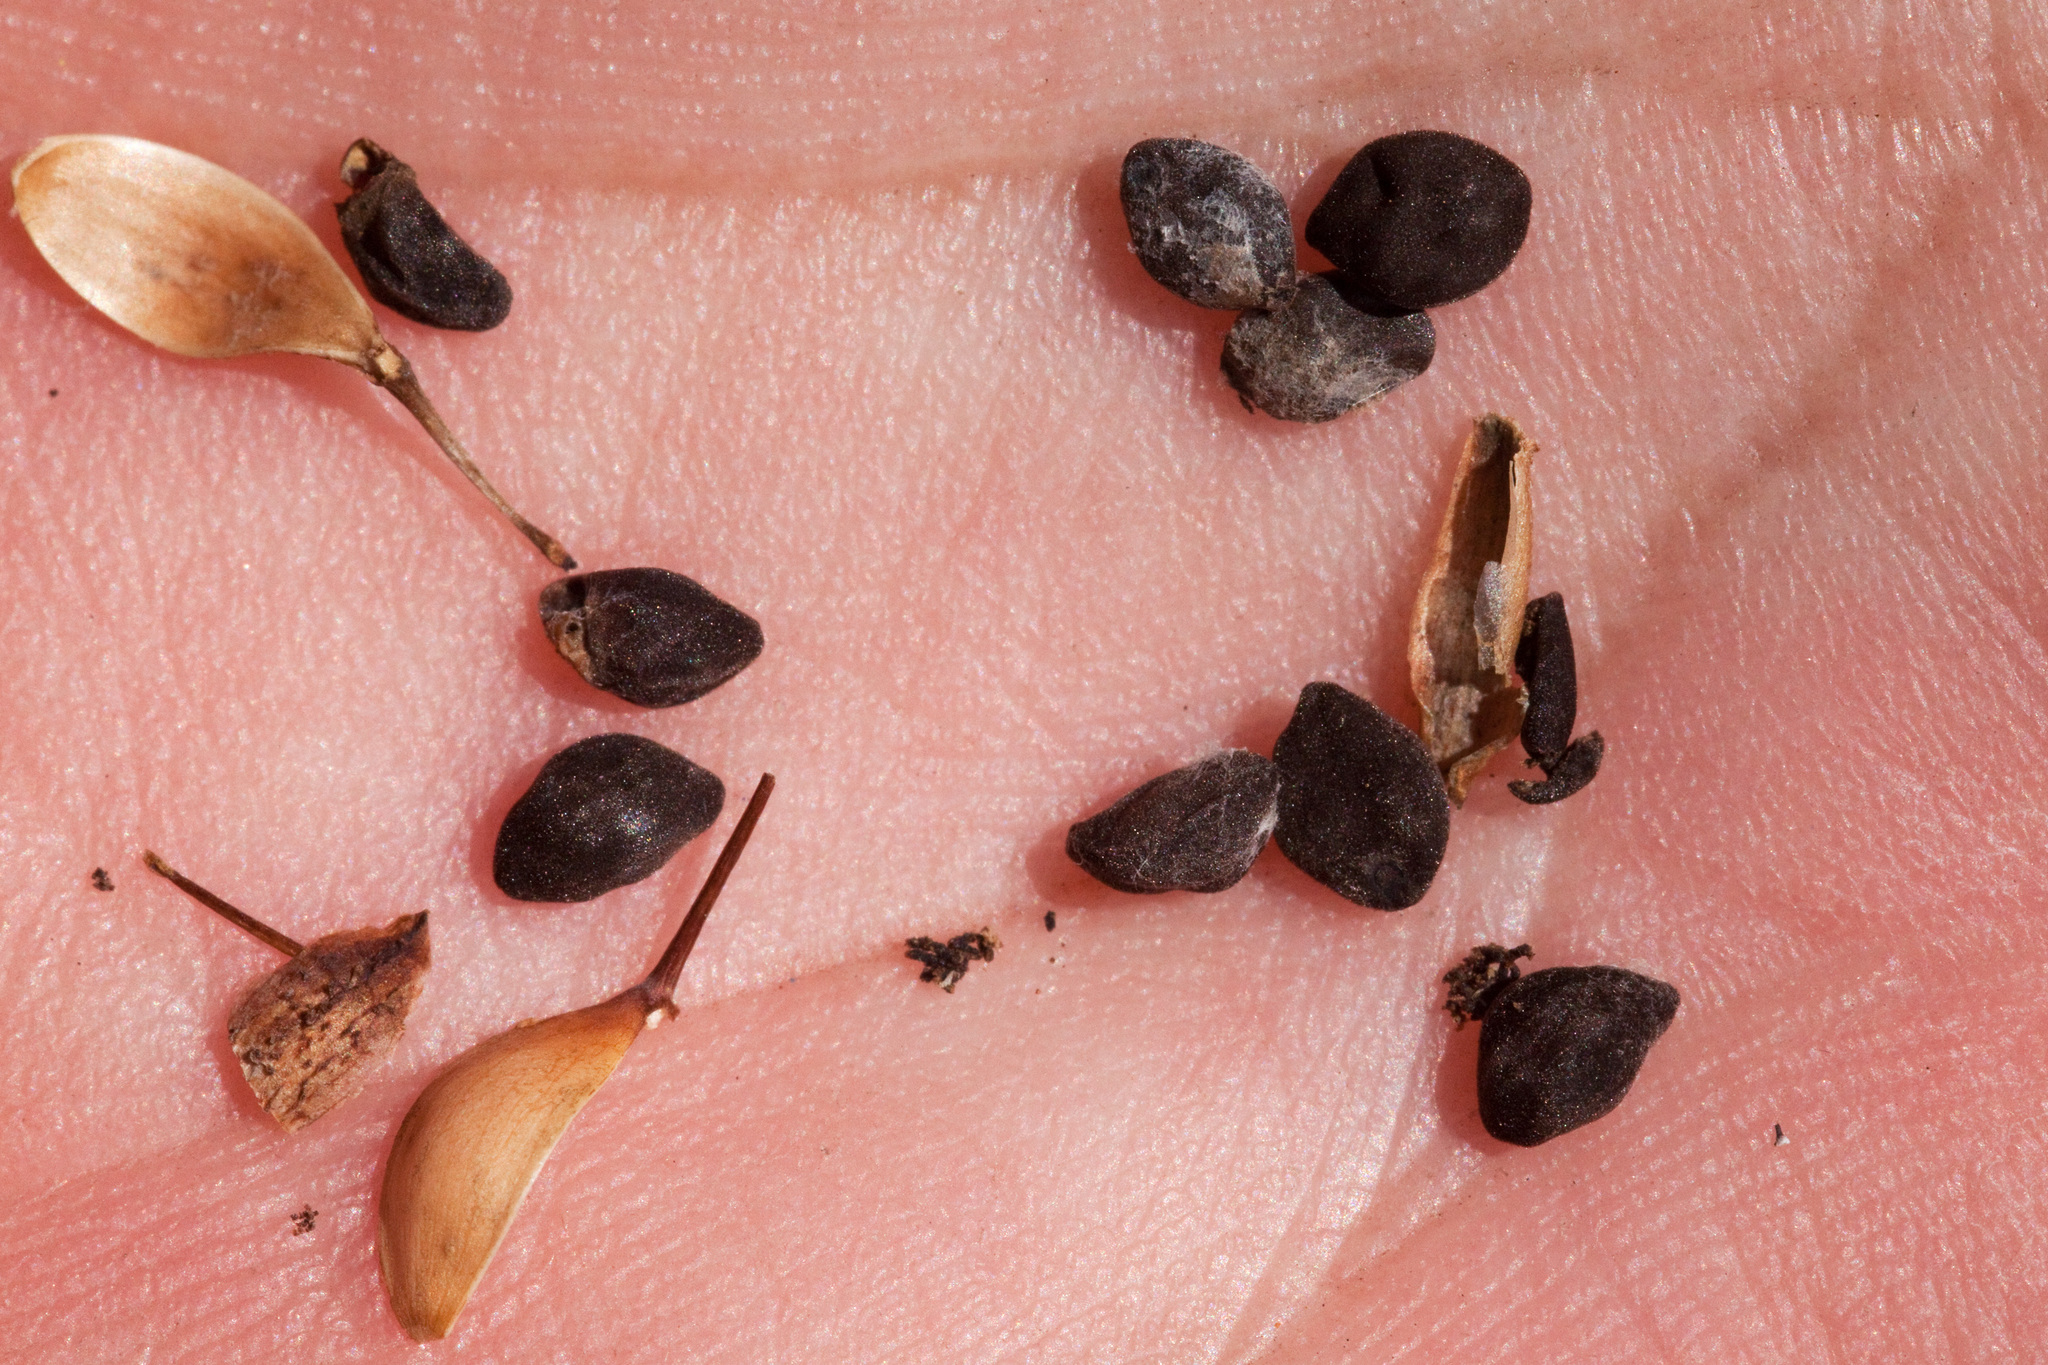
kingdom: Plantae
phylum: Tracheophyta
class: Magnoliopsida
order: Solanales
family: Convolvulaceae
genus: Ipomoea
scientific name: Ipomoea tenuiloba
